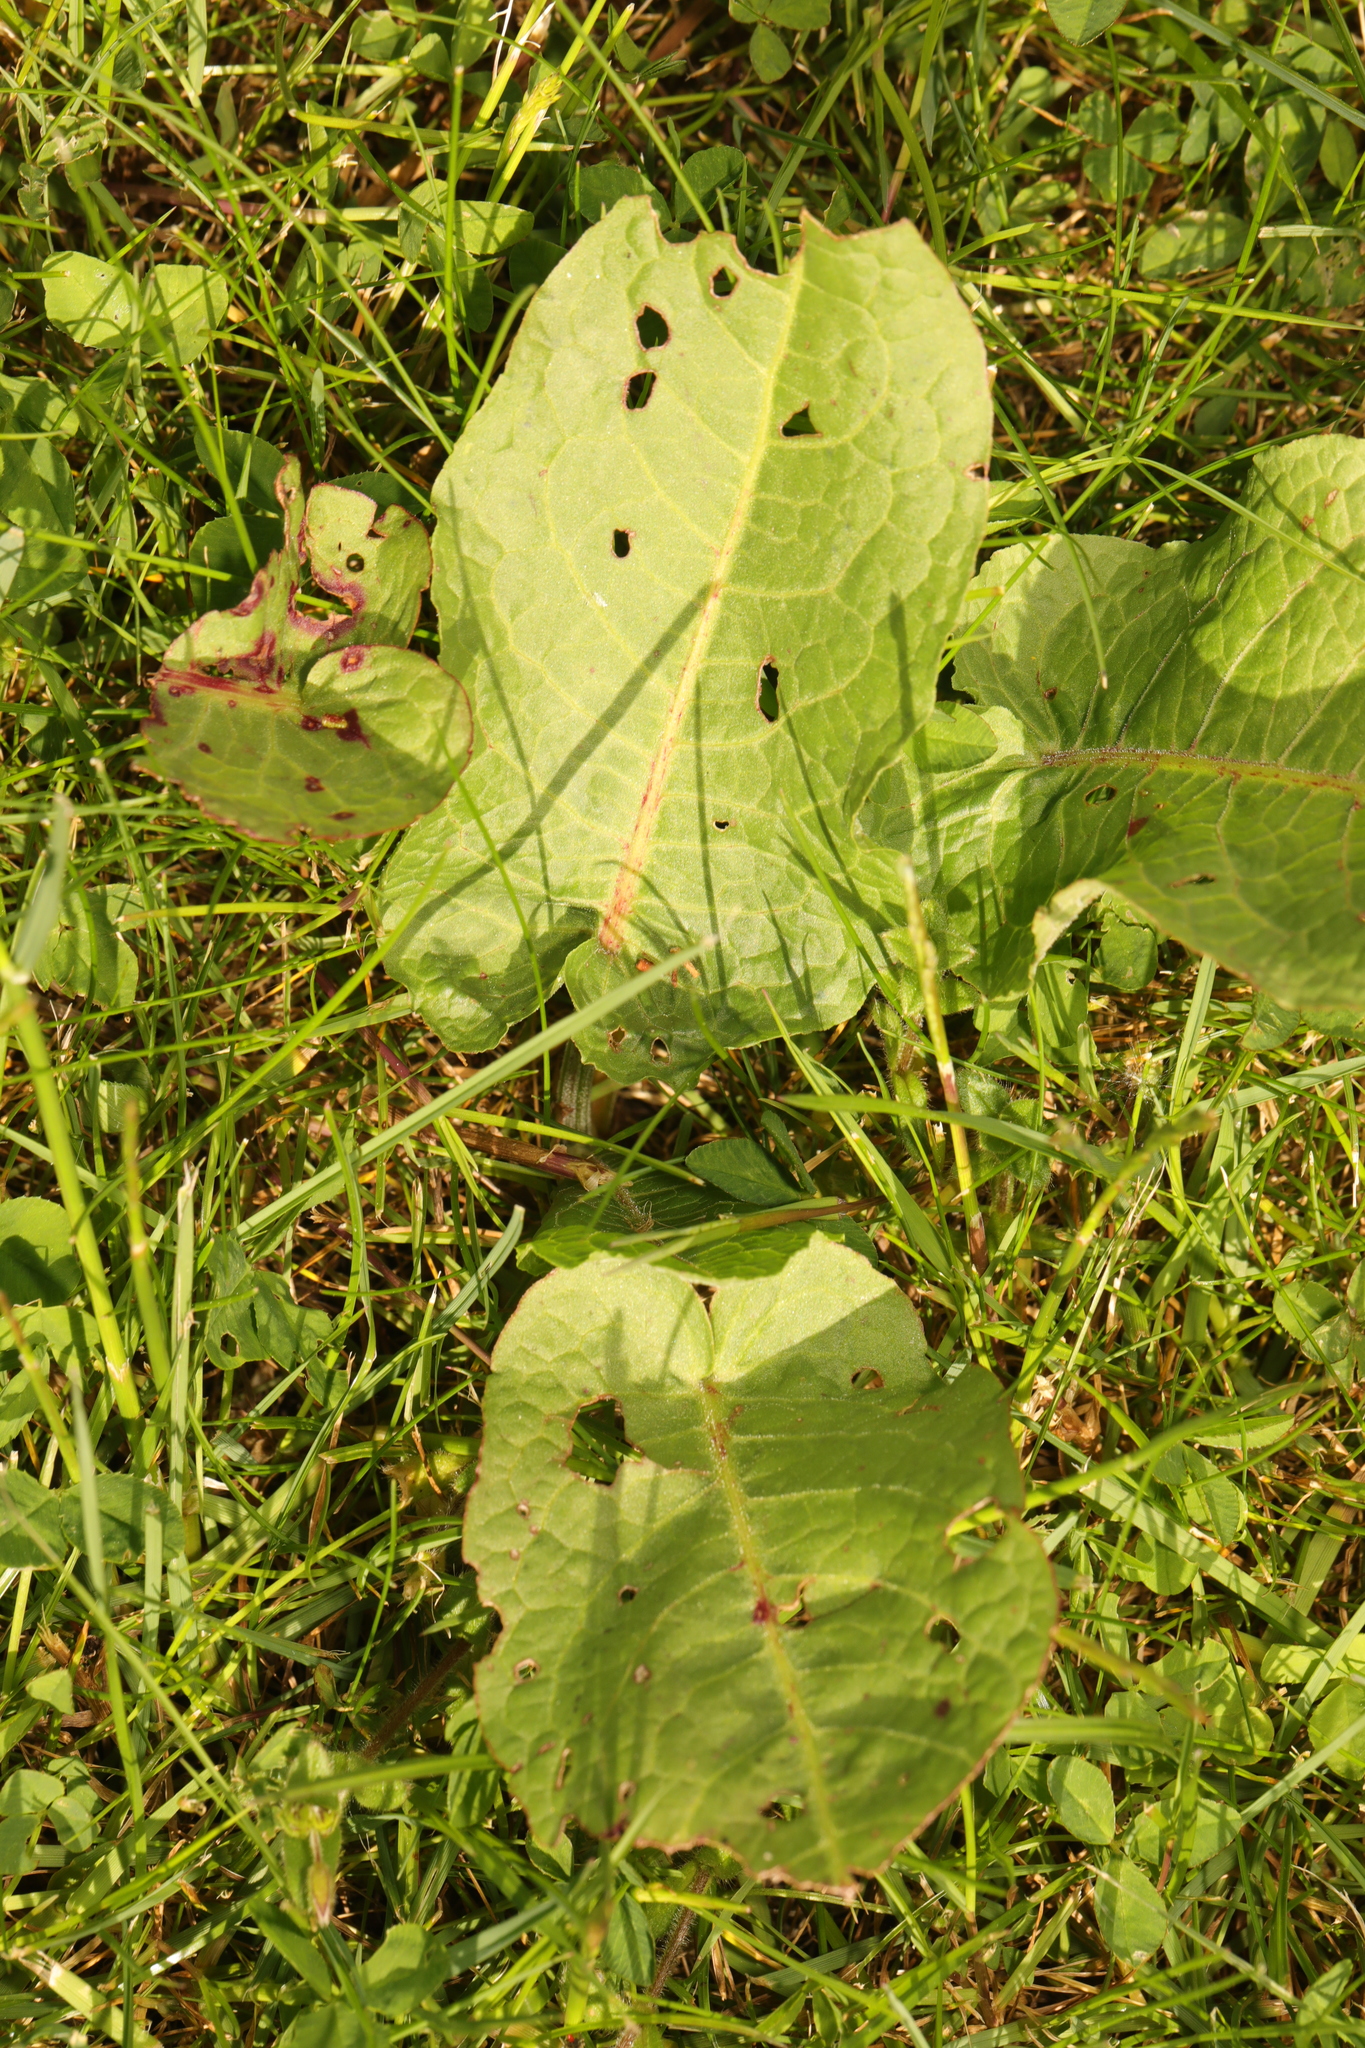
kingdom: Plantae
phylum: Tracheophyta
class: Magnoliopsida
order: Caryophyllales
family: Polygonaceae
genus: Rumex
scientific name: Rumex obtusifolius
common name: Bitter dock
